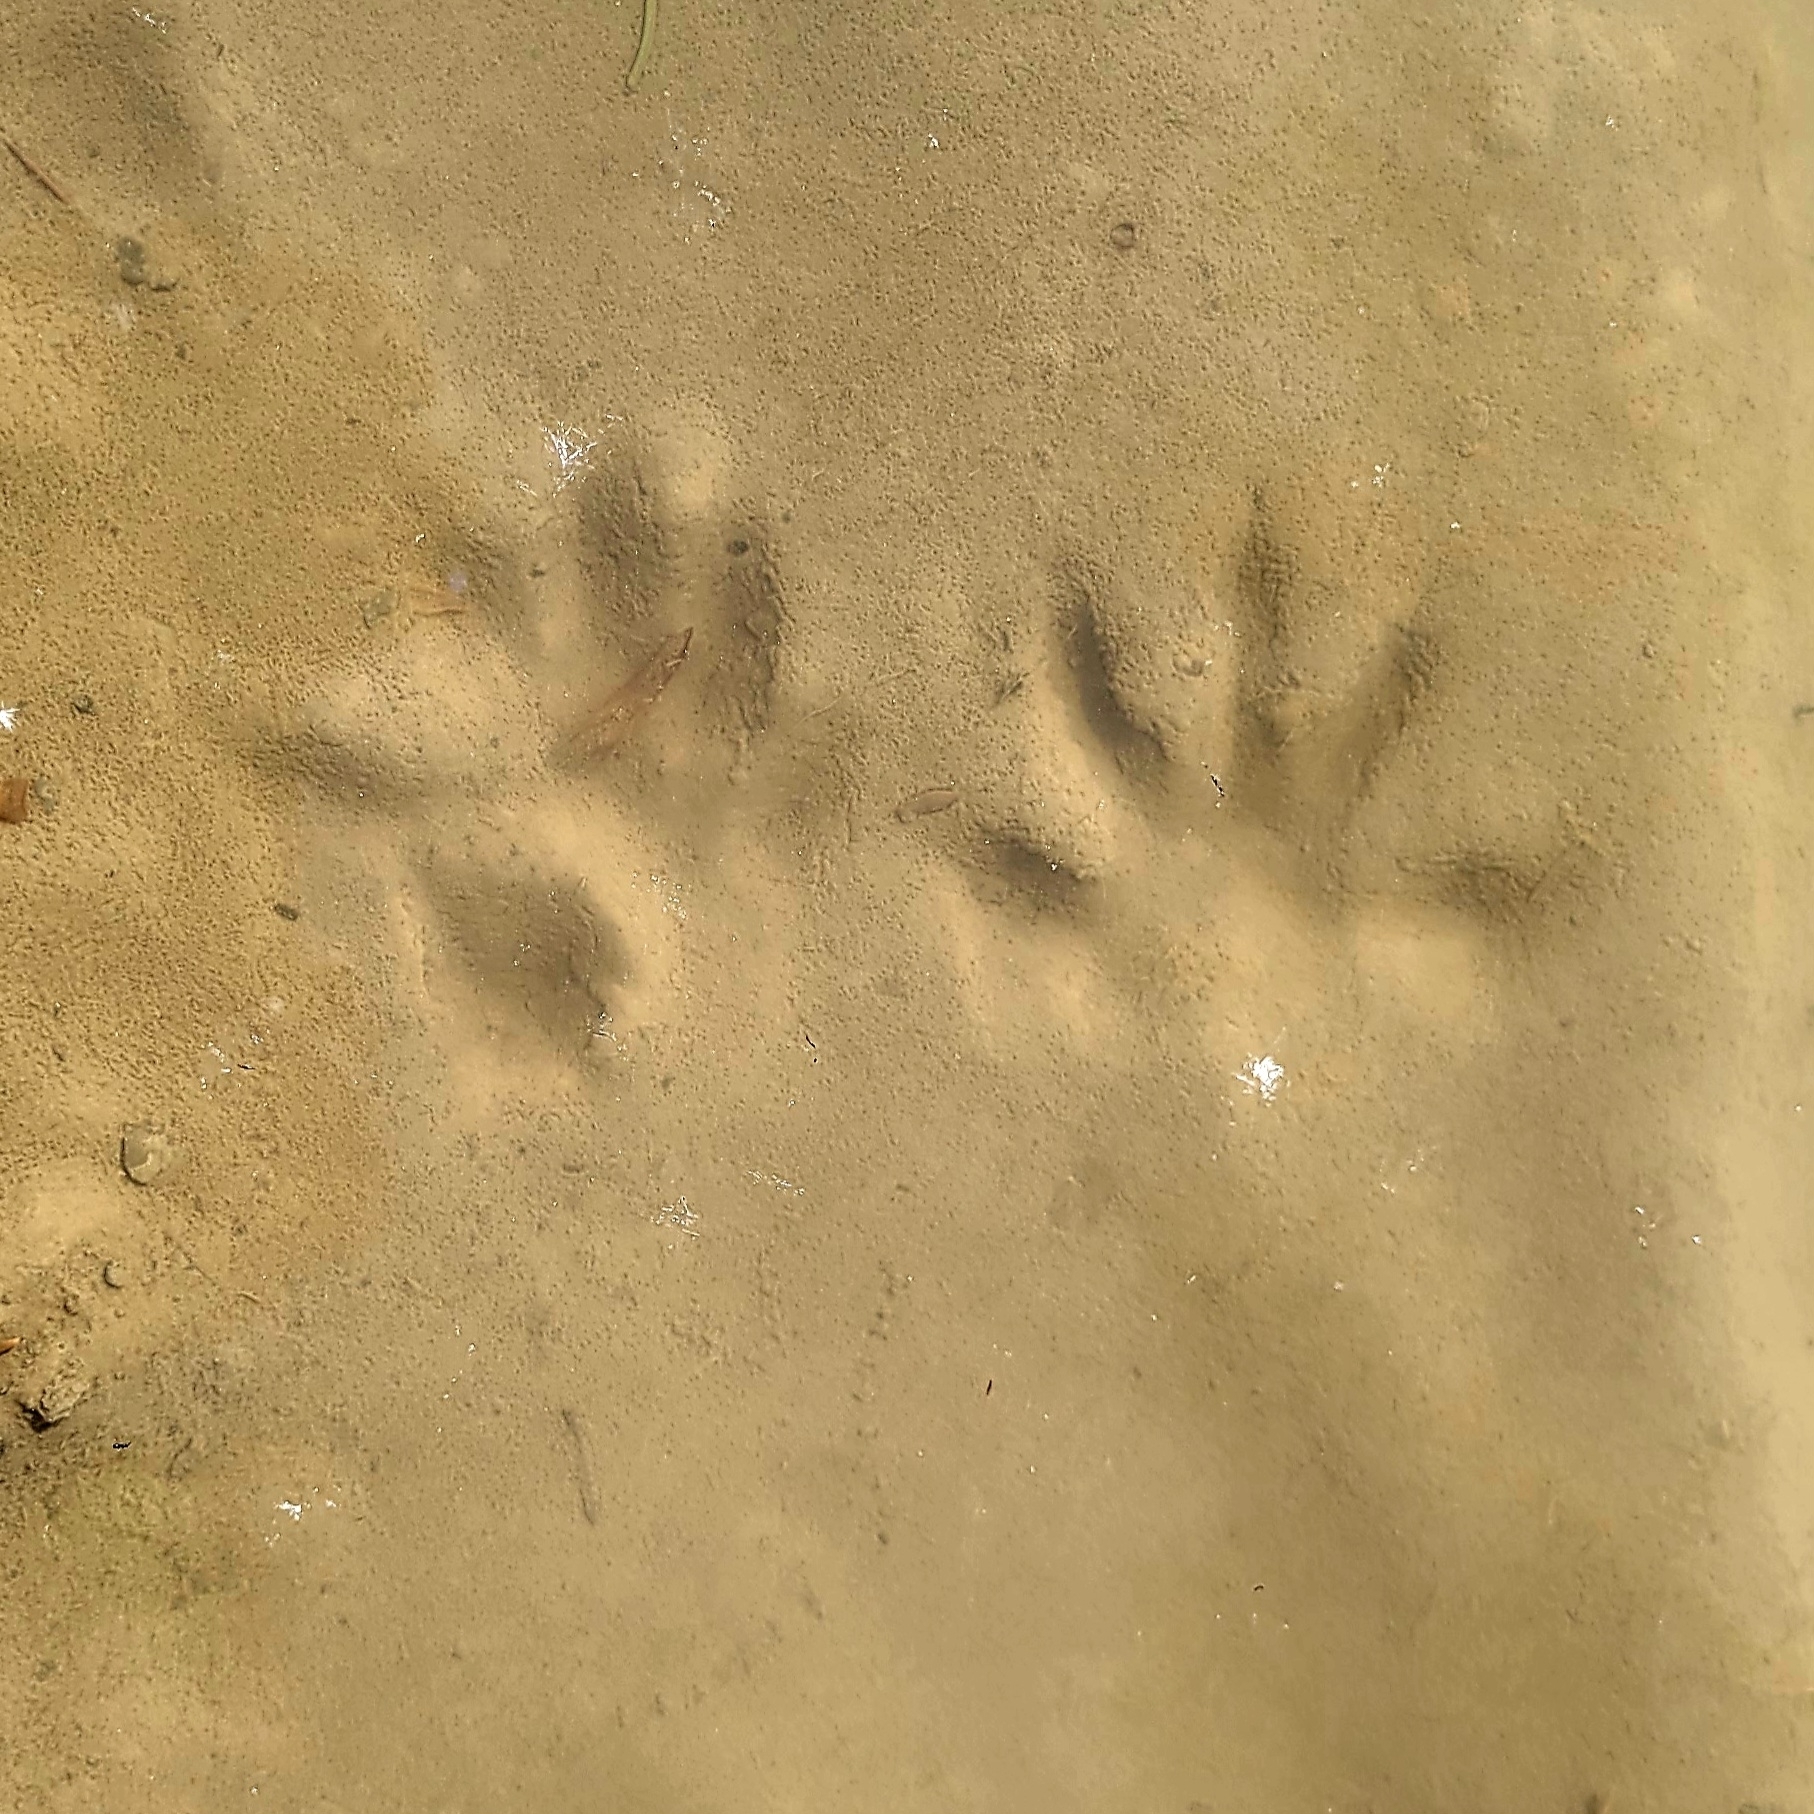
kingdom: Animalia
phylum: Chordata
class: Mammalia
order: Carnivora
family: Procyonidae
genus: Procyon
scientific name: Procyon lotor
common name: Raccoon
